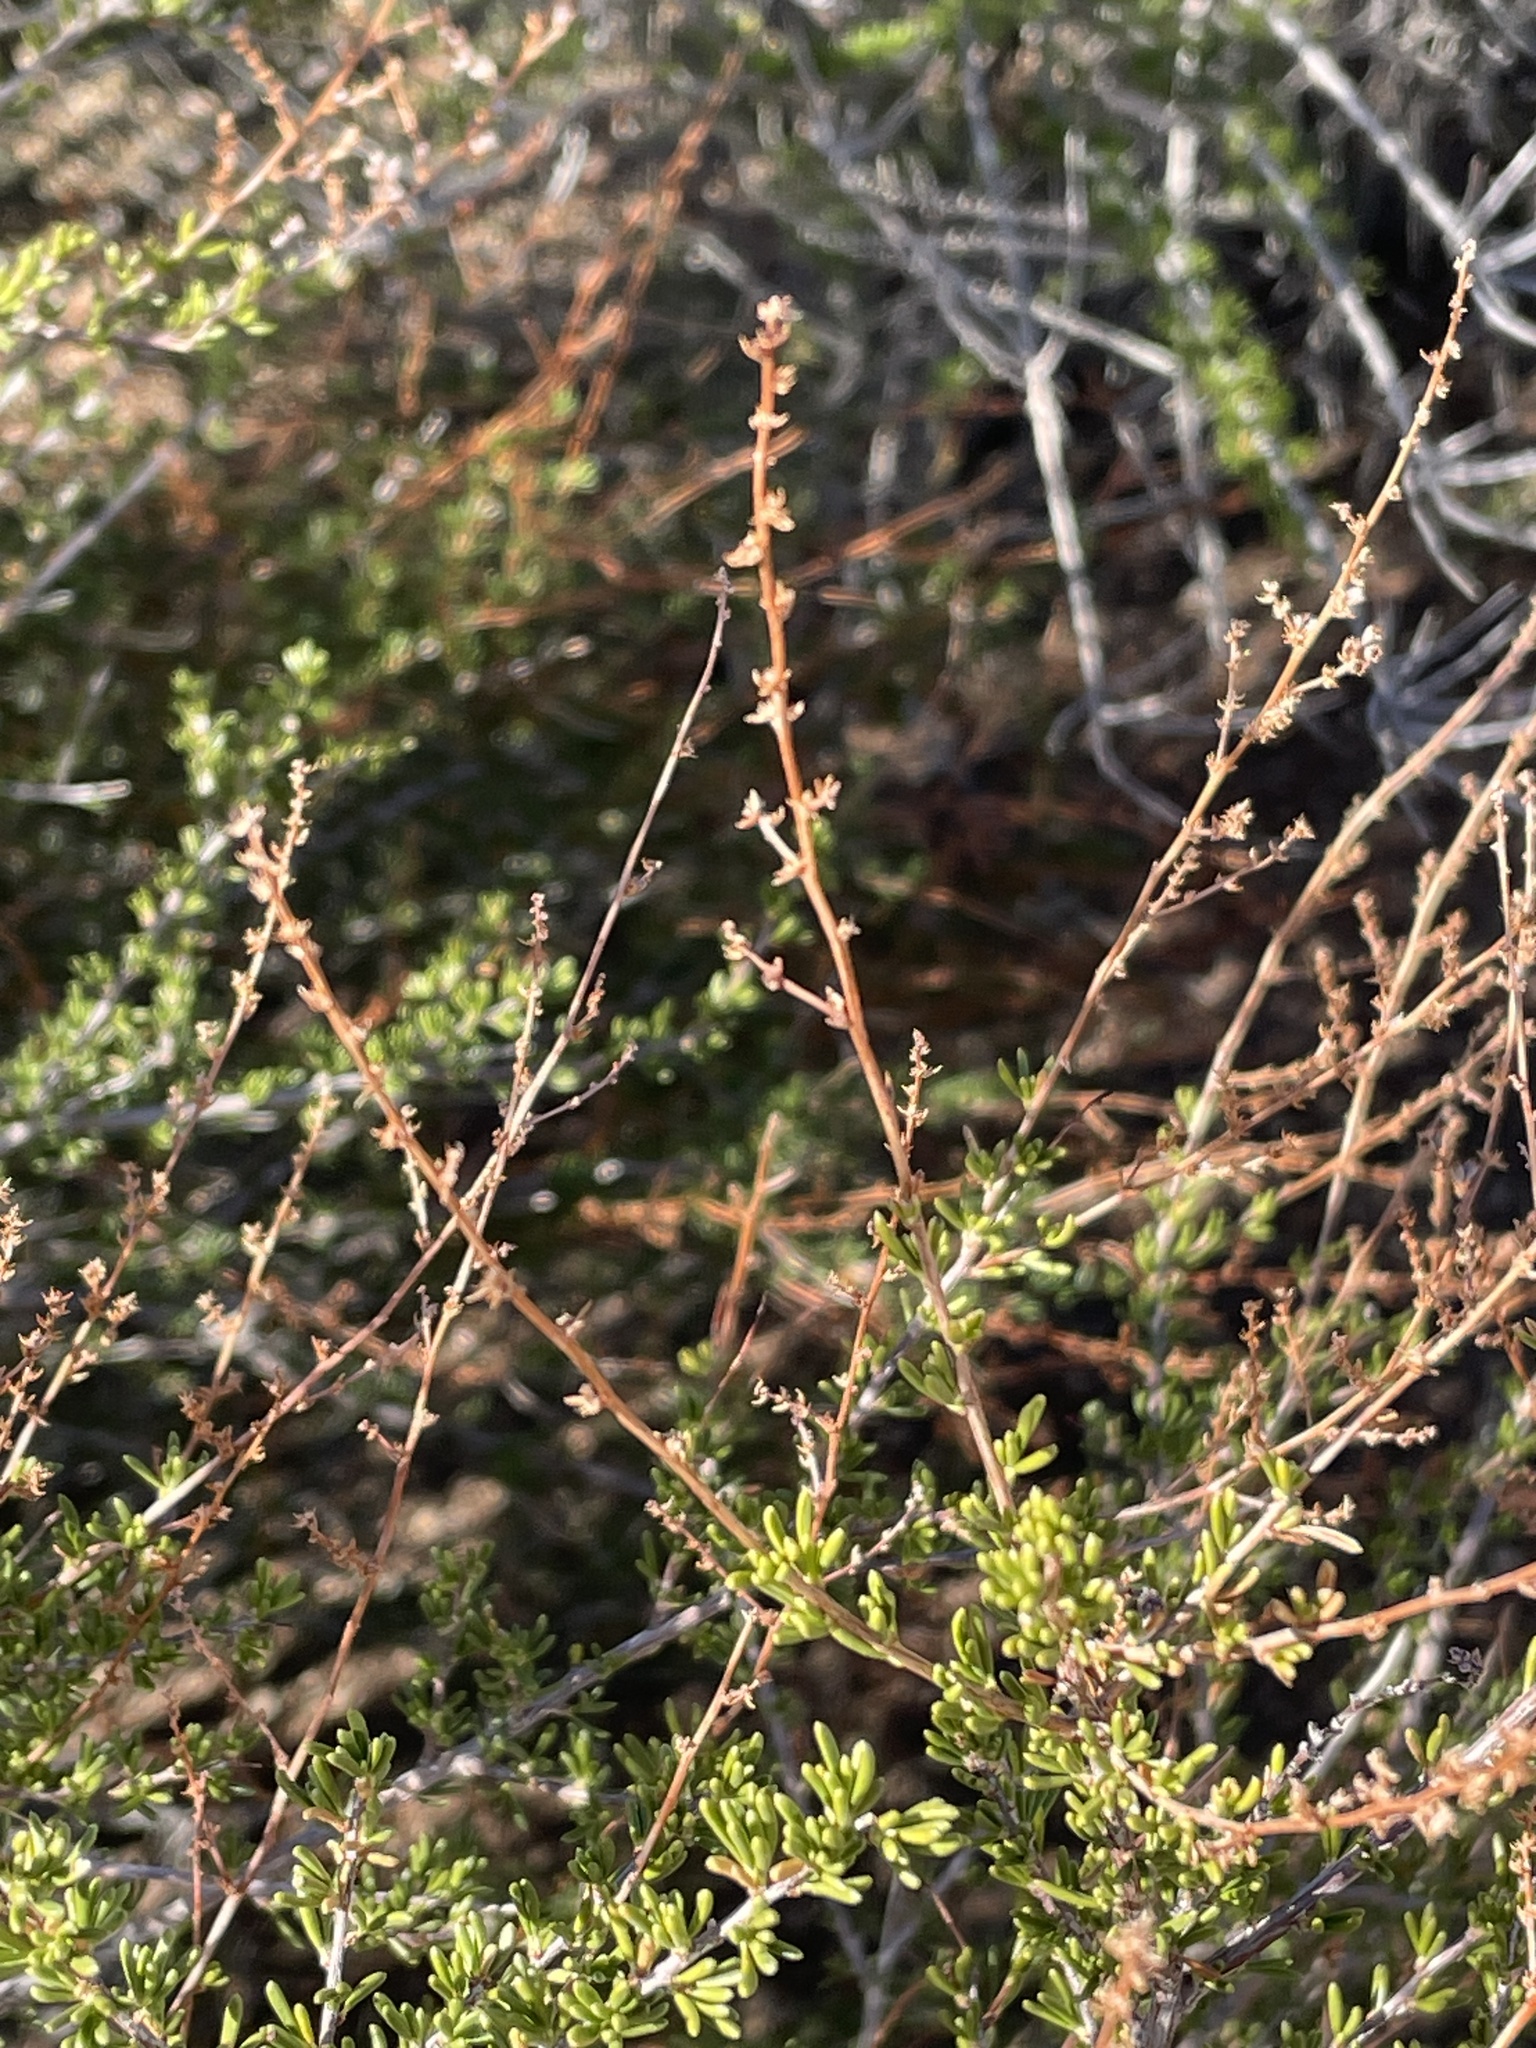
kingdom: Plantae
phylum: Tracheophyta
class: Magnoliopsida
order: Rosales
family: Rosaceae
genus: Adenostoma
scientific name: Adenostoma fasciculatum
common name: Chamise
